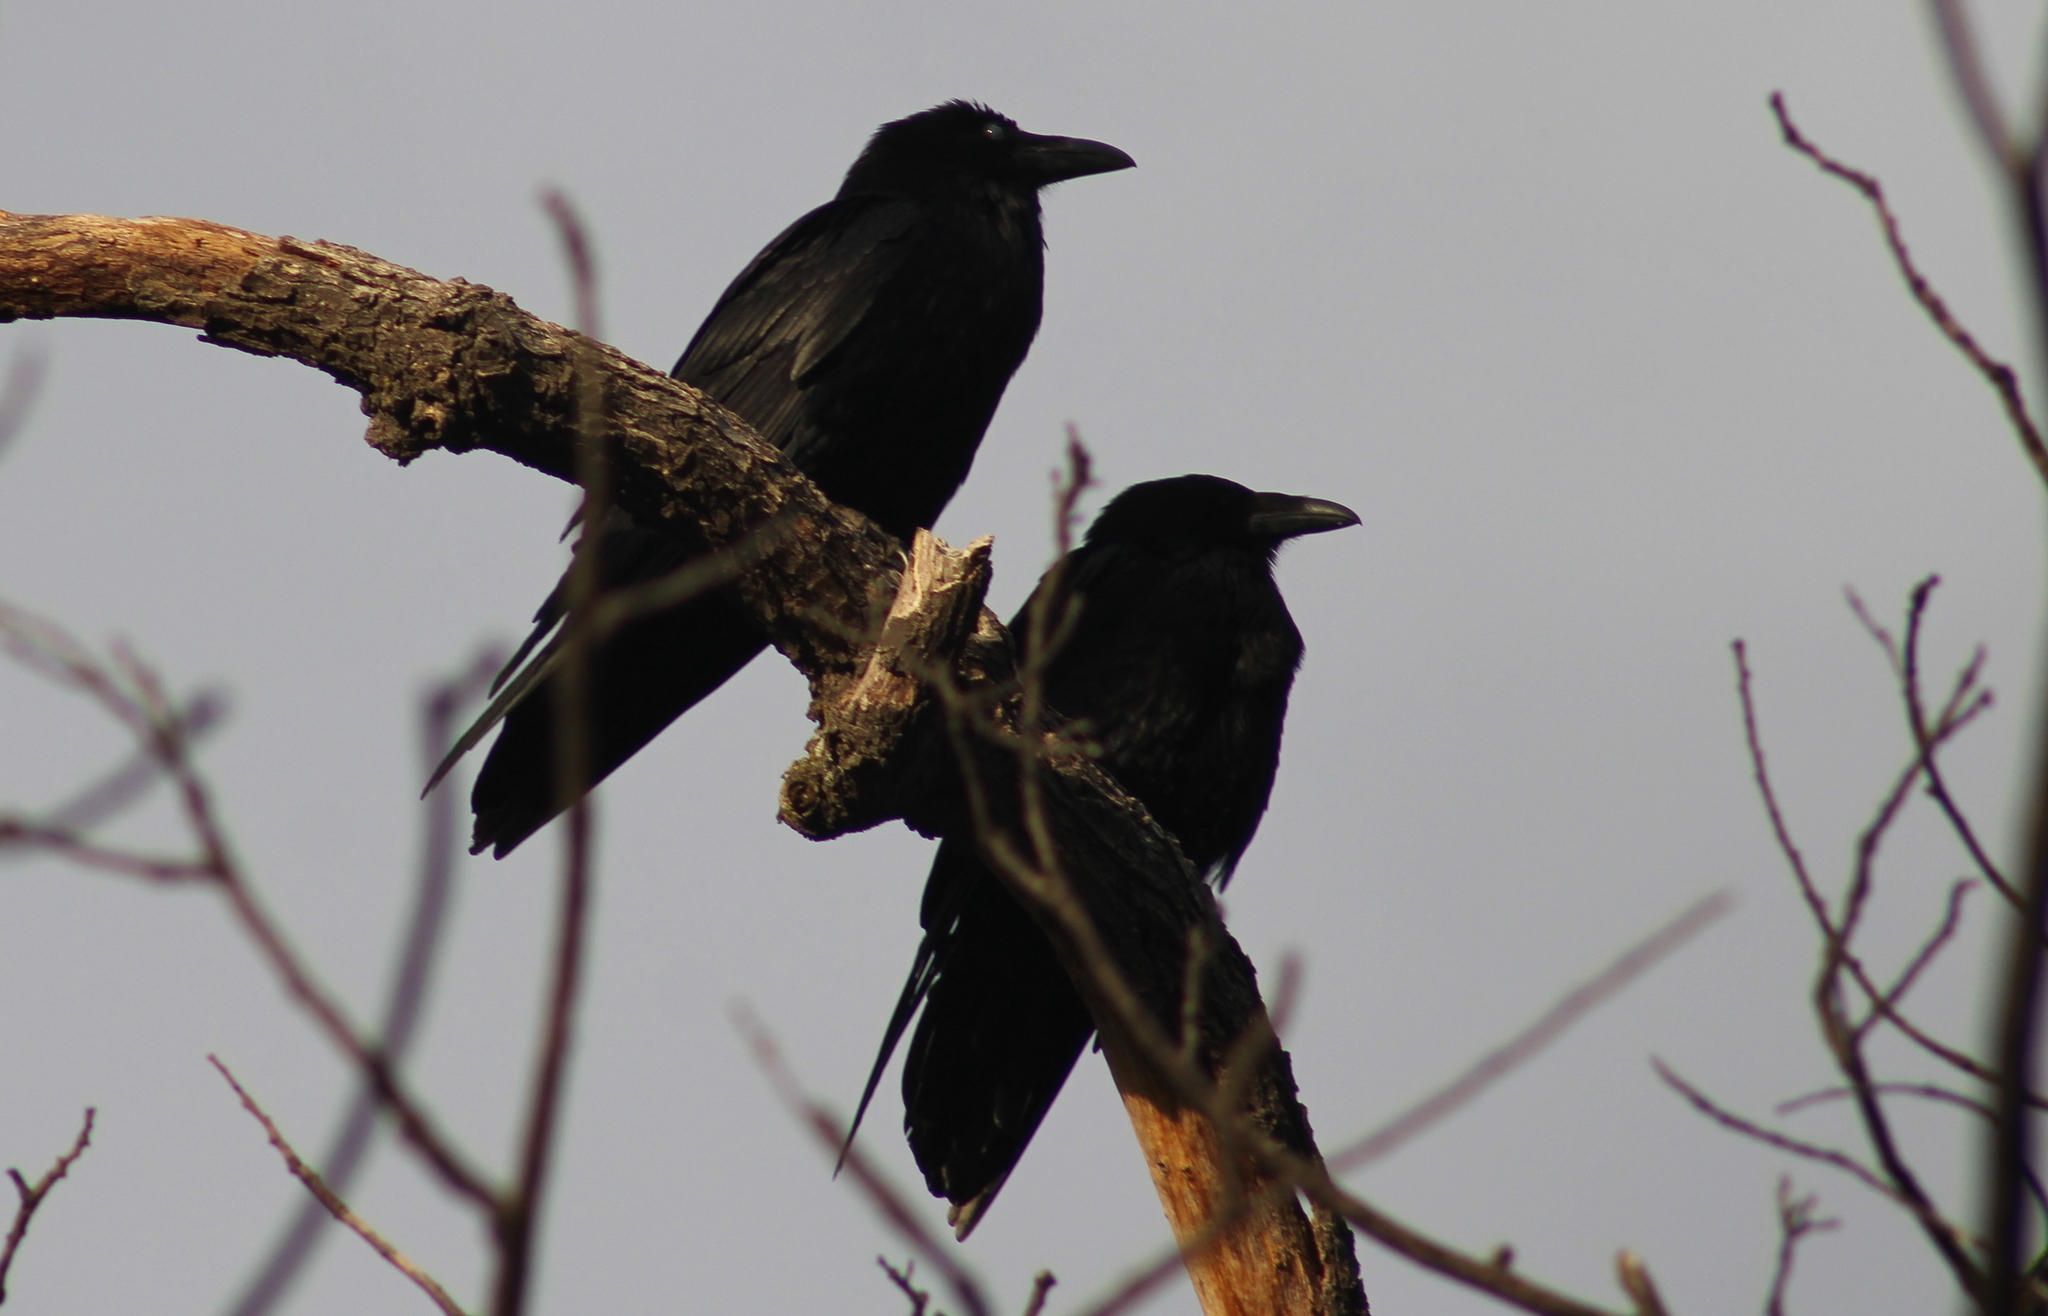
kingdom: Animalia
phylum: Chordata
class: Aves
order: Passeriformes
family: Corvidae
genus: Corvus
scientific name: Corvus corax
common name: Common raven
